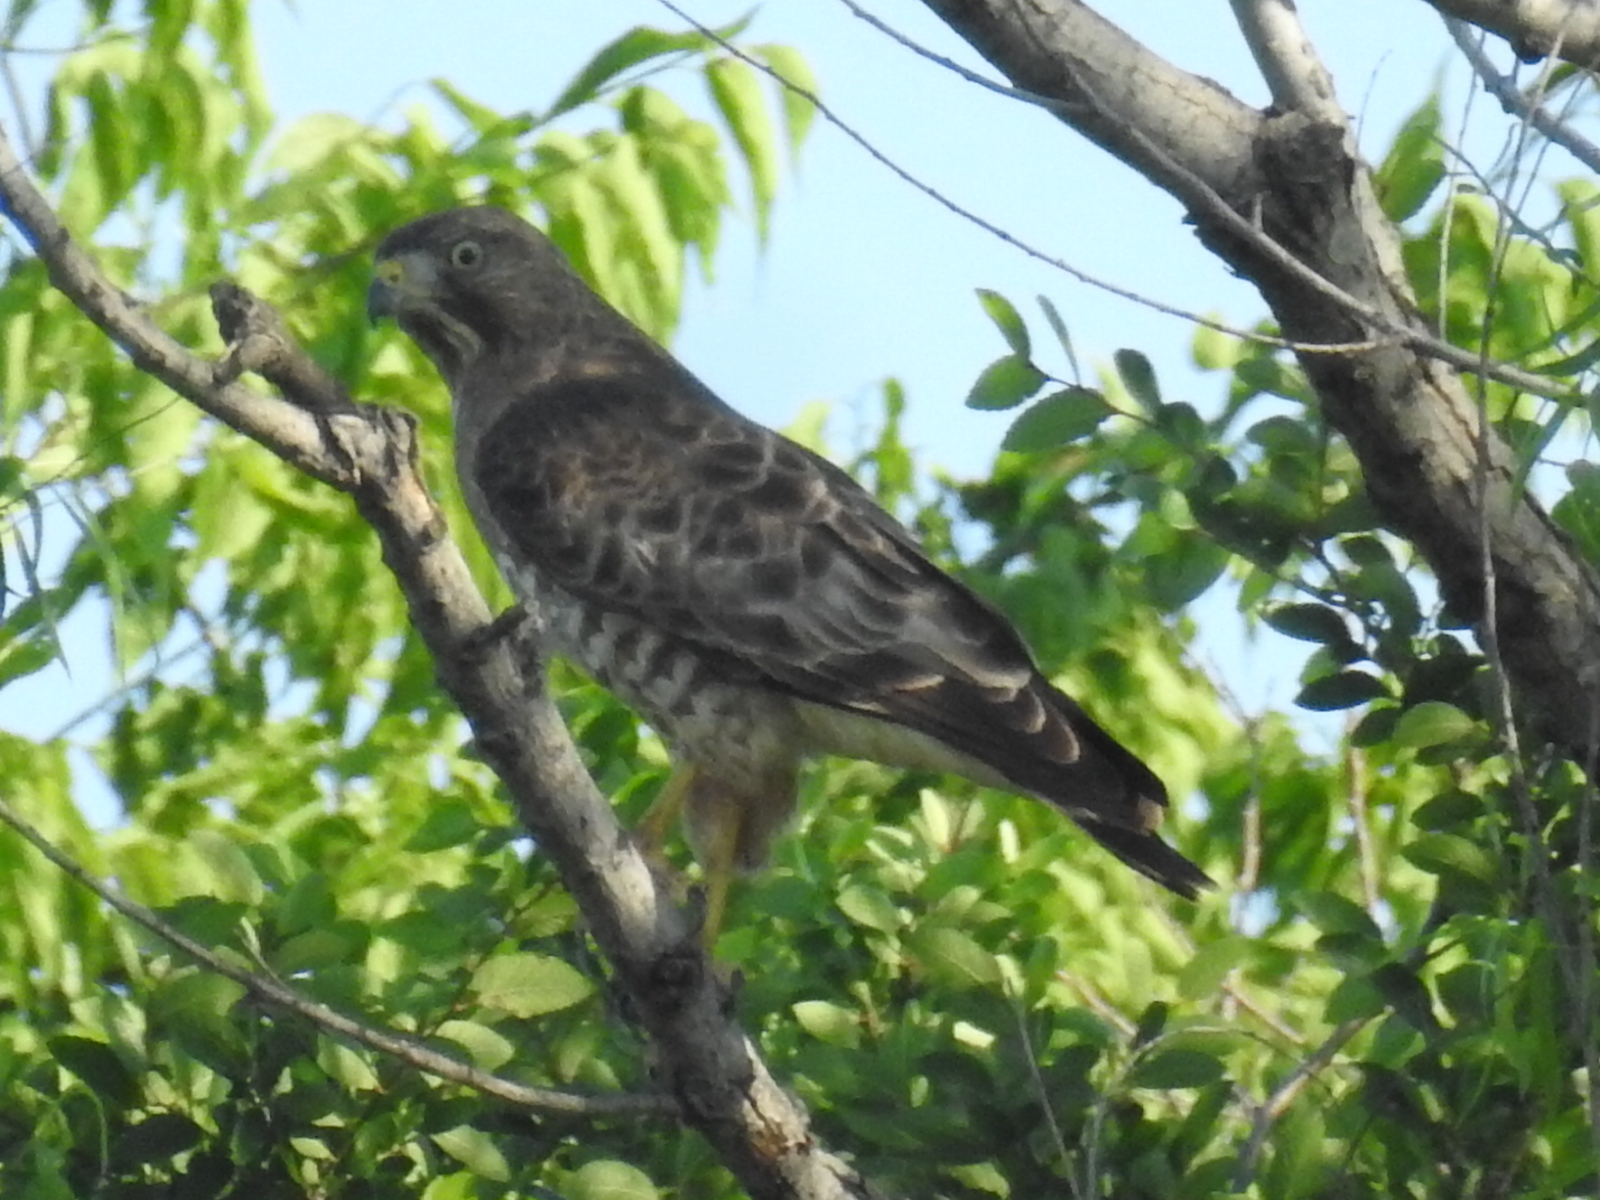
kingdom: Animalia
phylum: Chordata
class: Aves
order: Accipitriformes
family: Accipitridae
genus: Buteo
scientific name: Buteo platypterus
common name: Broad-winged hawk
